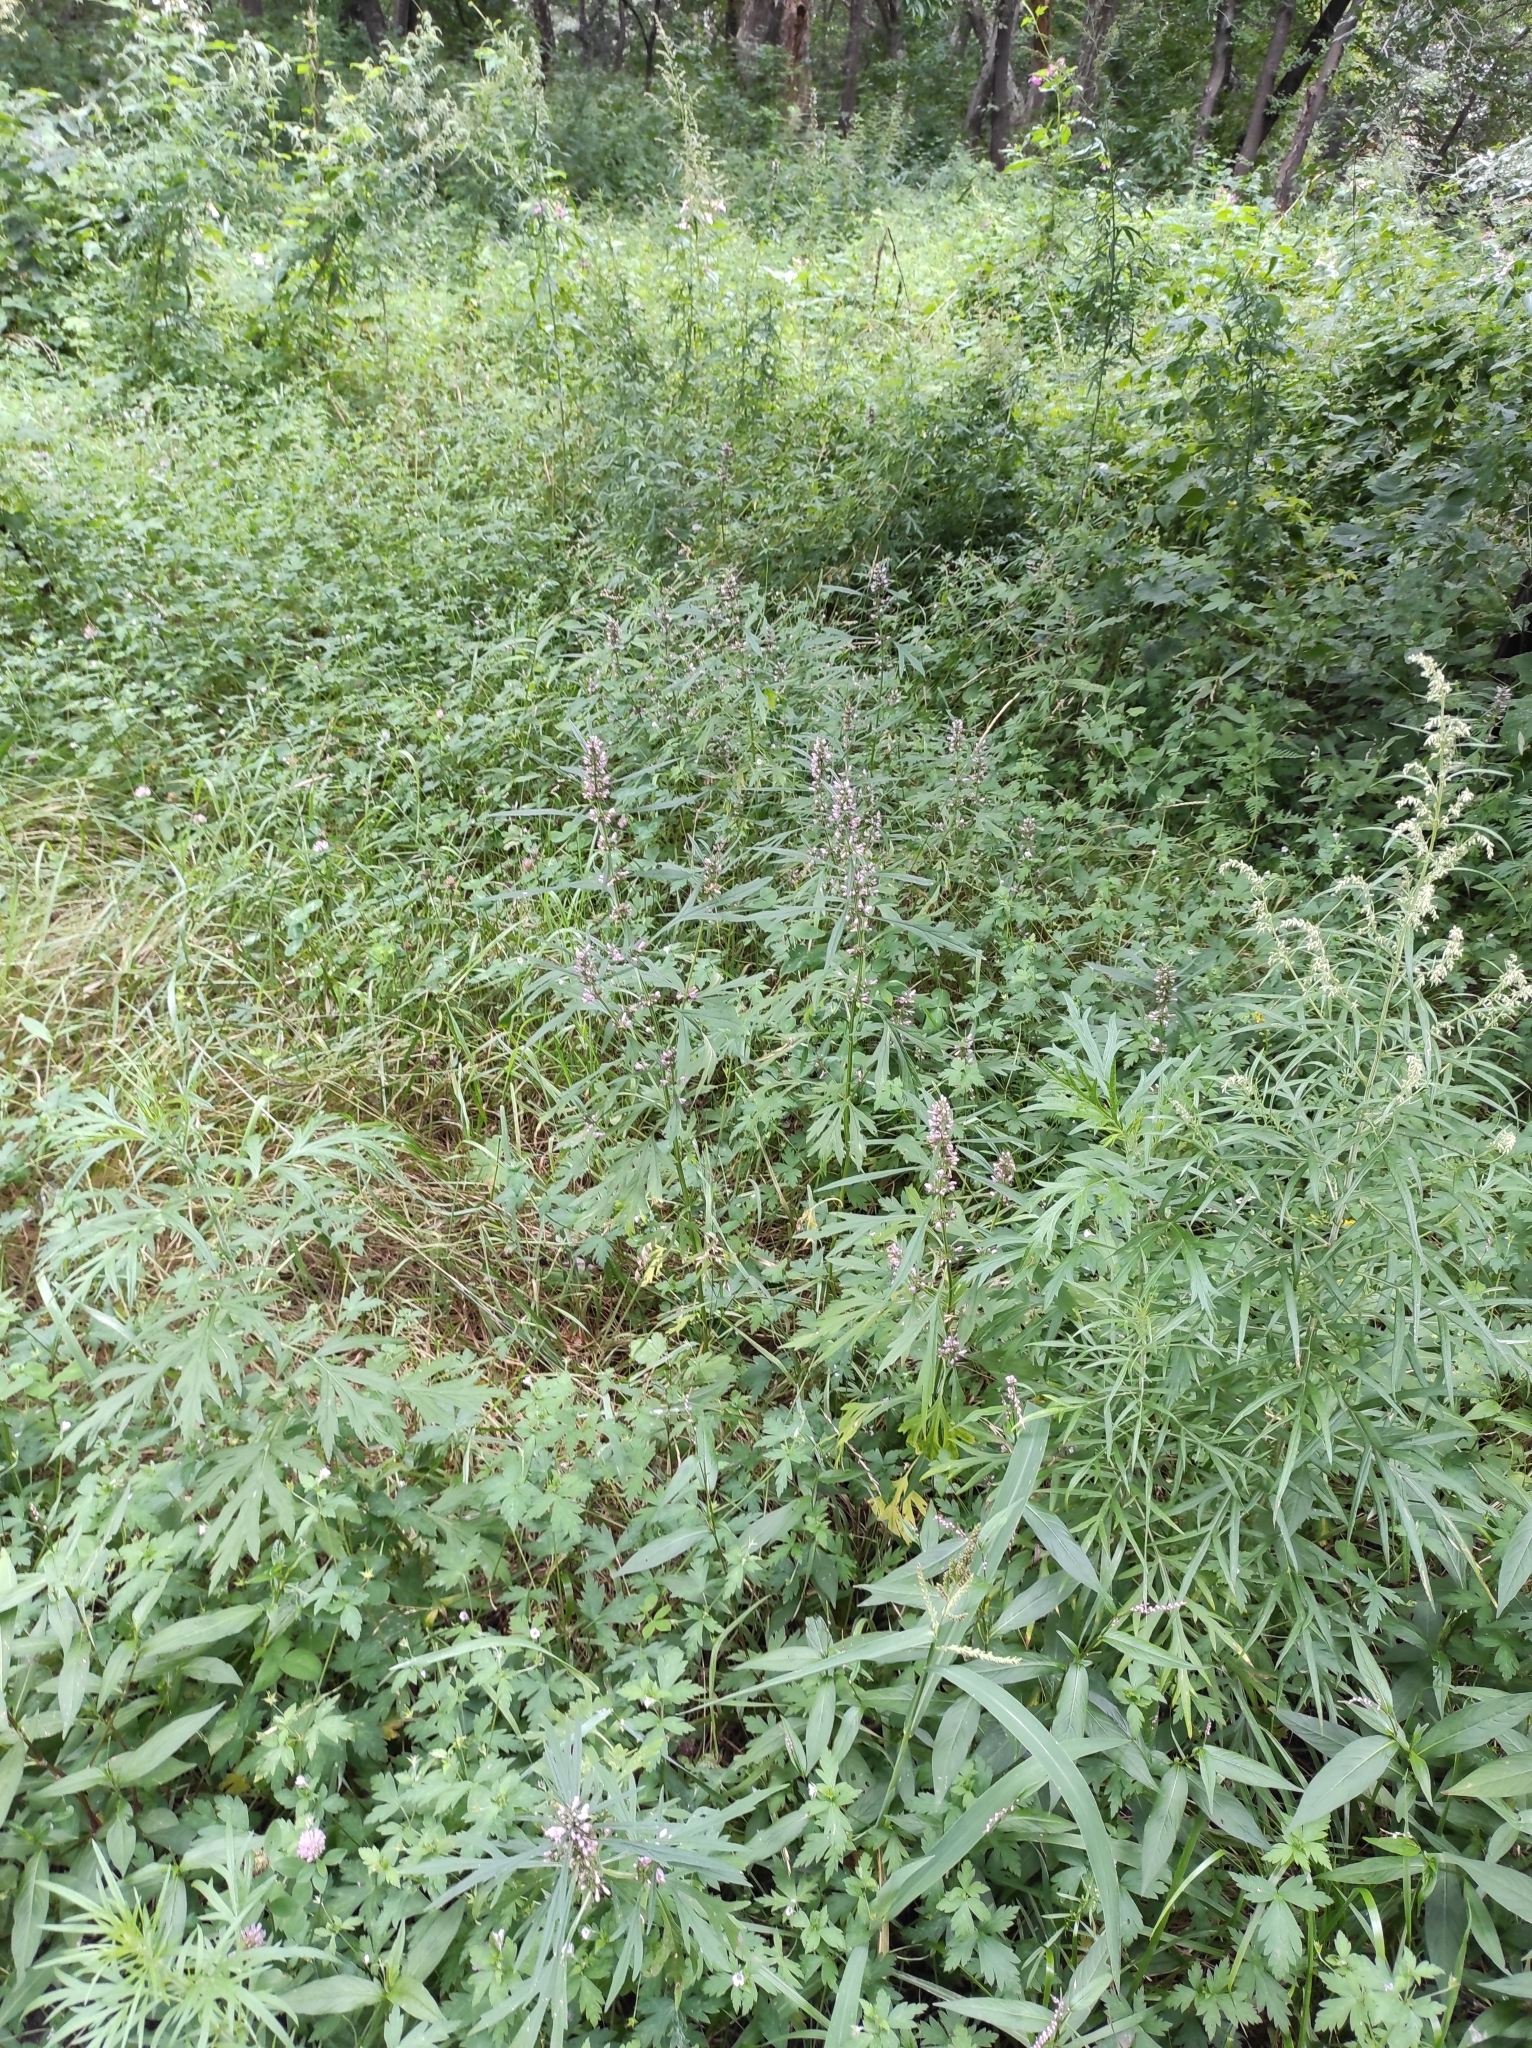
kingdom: Plantae
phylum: Tracheophyta
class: Magnoliopsida
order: Lamiales
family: Lamiaceae
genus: Leonurus
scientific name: Leonurus japonicus
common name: Honeyweed
